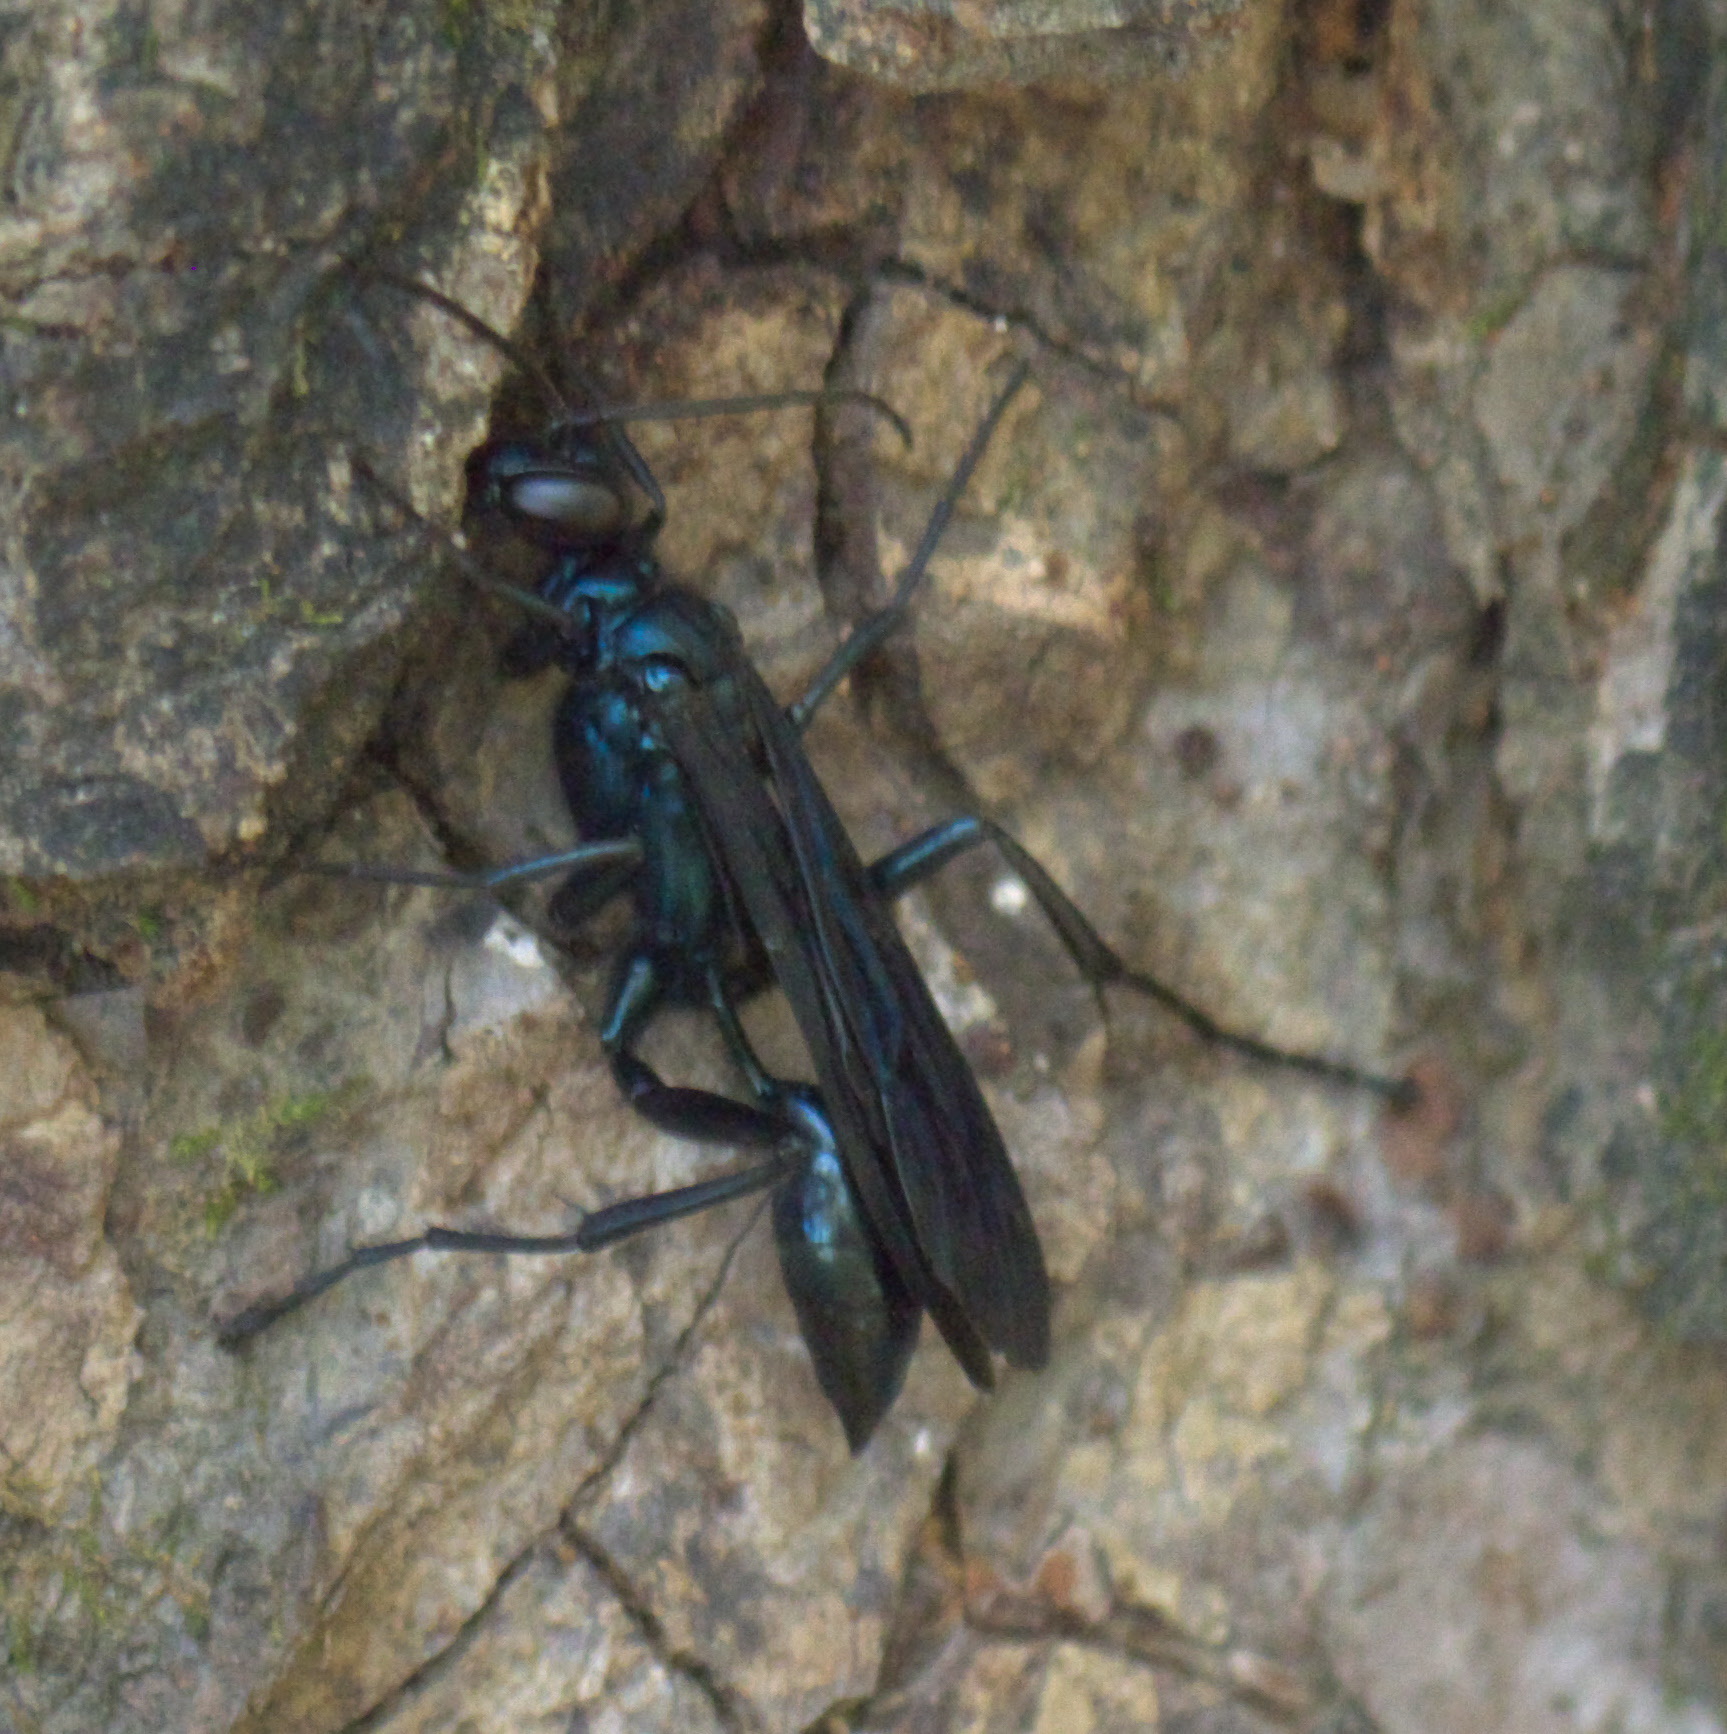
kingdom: Animalia
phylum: Arthropoda
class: Insecta
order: Hymenoptera
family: Sphecidae
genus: Chalybion
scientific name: Chalybion californicum
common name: Mud dauber
